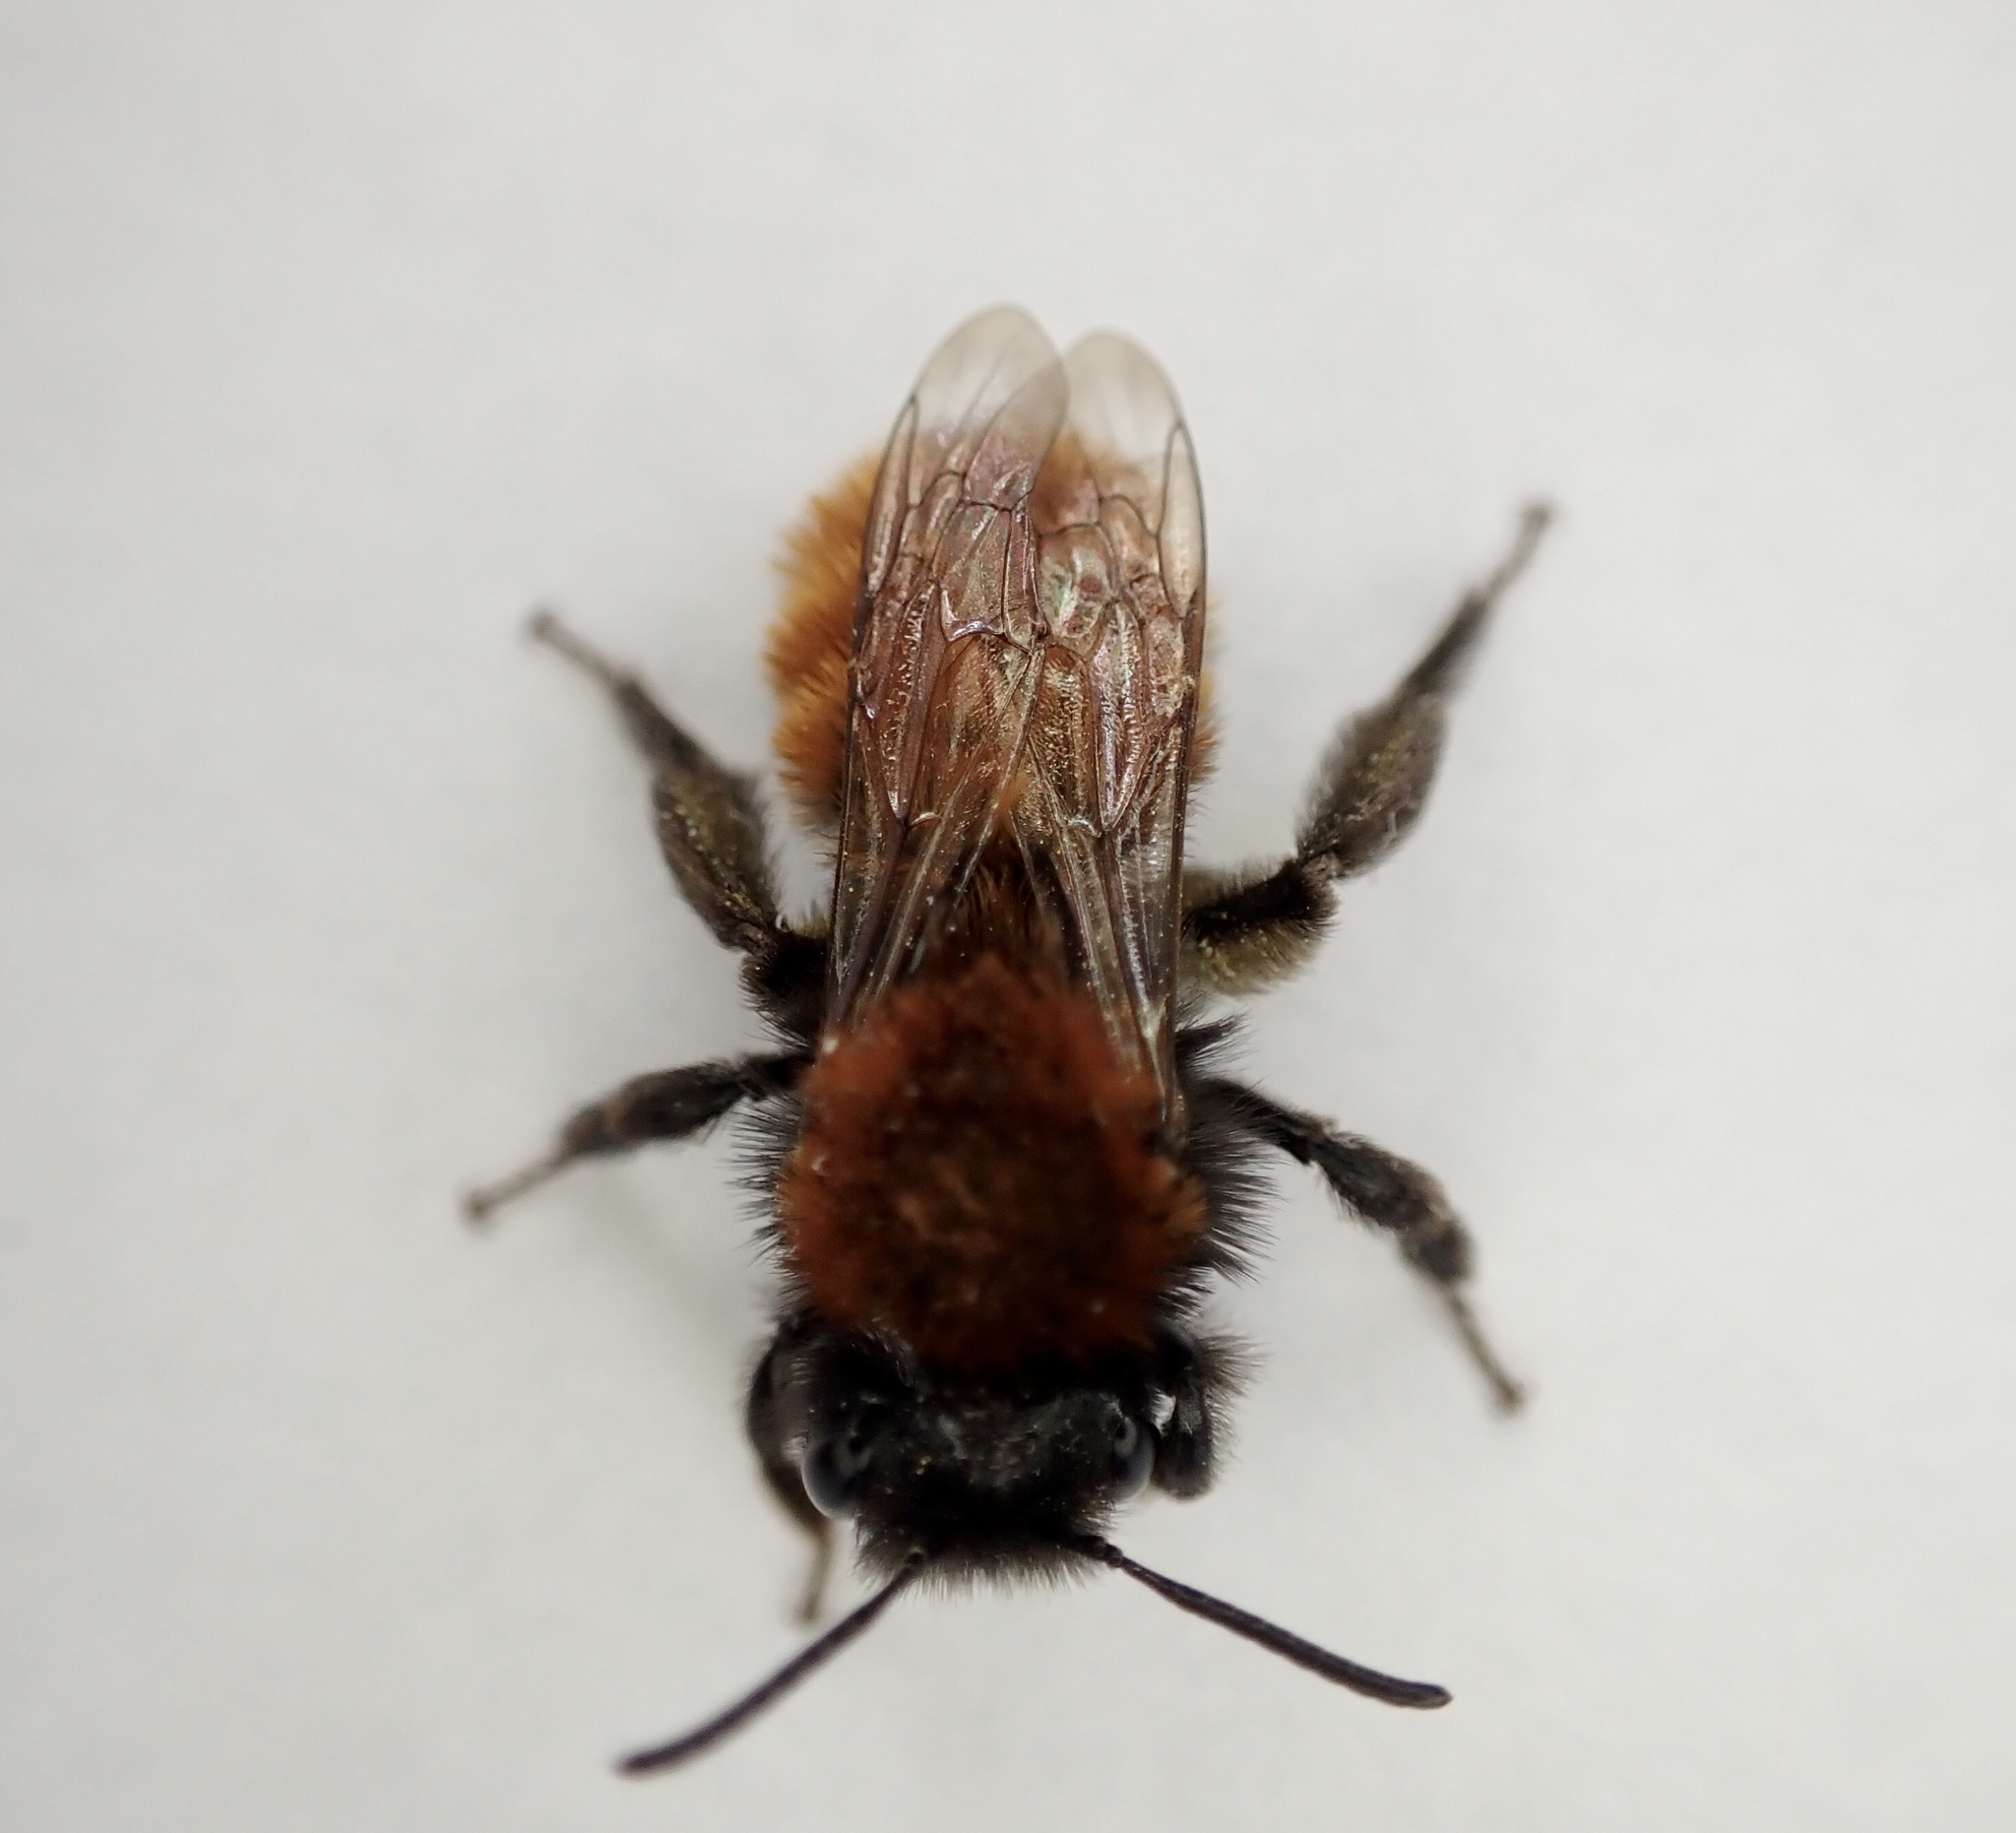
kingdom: Animalia
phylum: Arthropoda
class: Insecta
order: Hymenoptera
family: Andrenidae
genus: Andrena
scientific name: Andrena fulva
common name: Tawny mining bee
